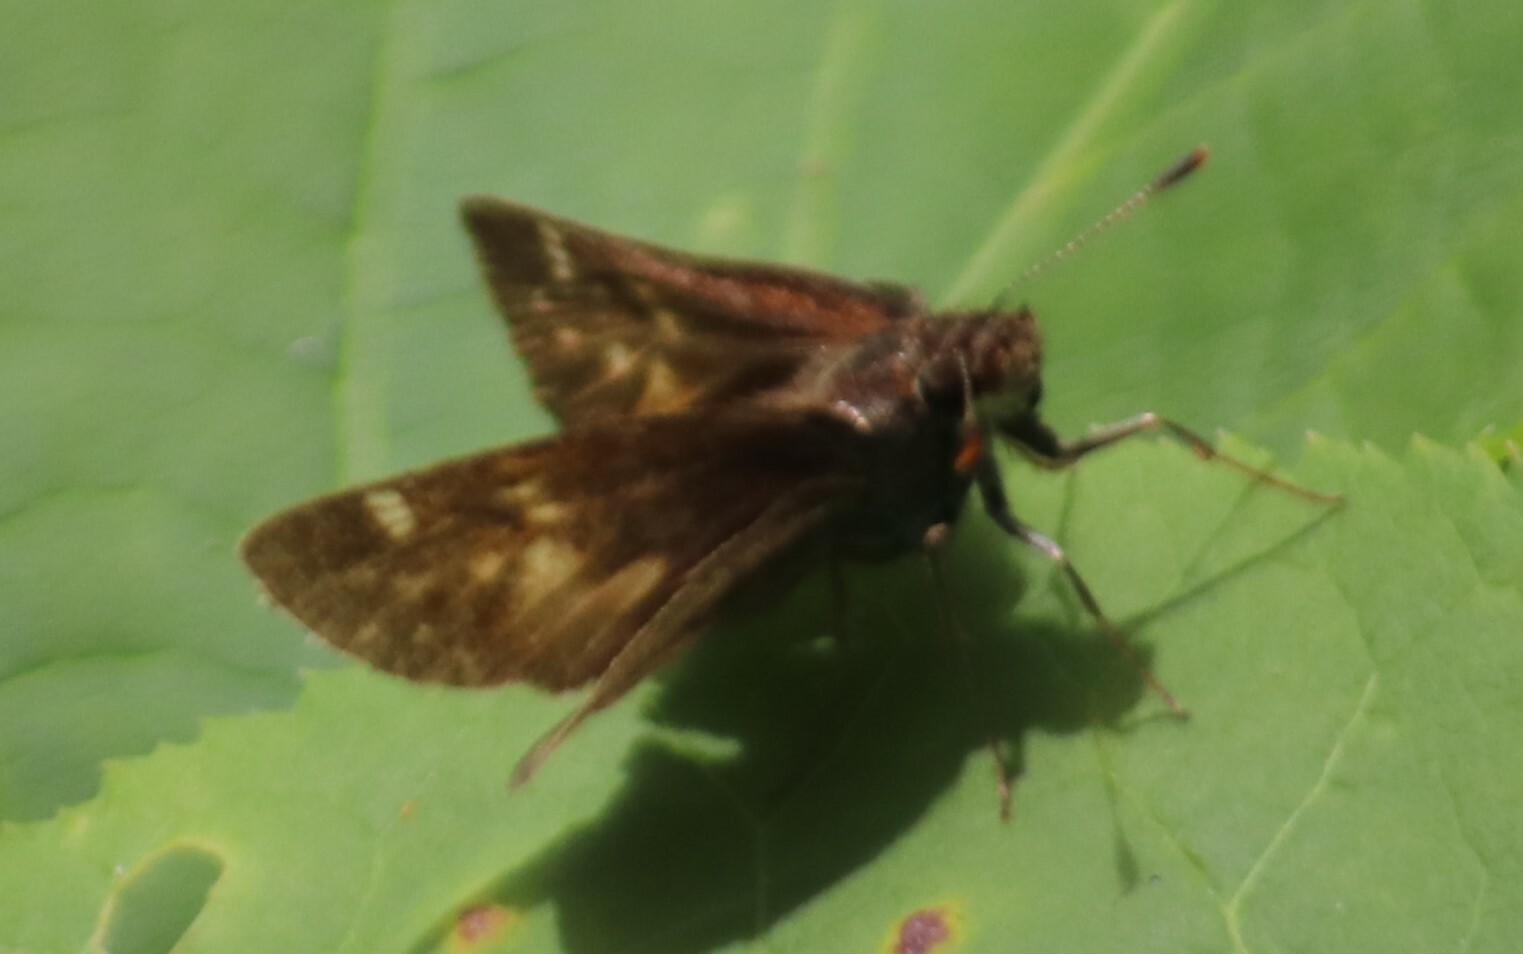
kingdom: Animalia
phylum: Arthropoda
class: Insecta
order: Lepidoptera
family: Hesperiidae
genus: Lon
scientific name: Lon hobomok
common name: Hobomok skipper
